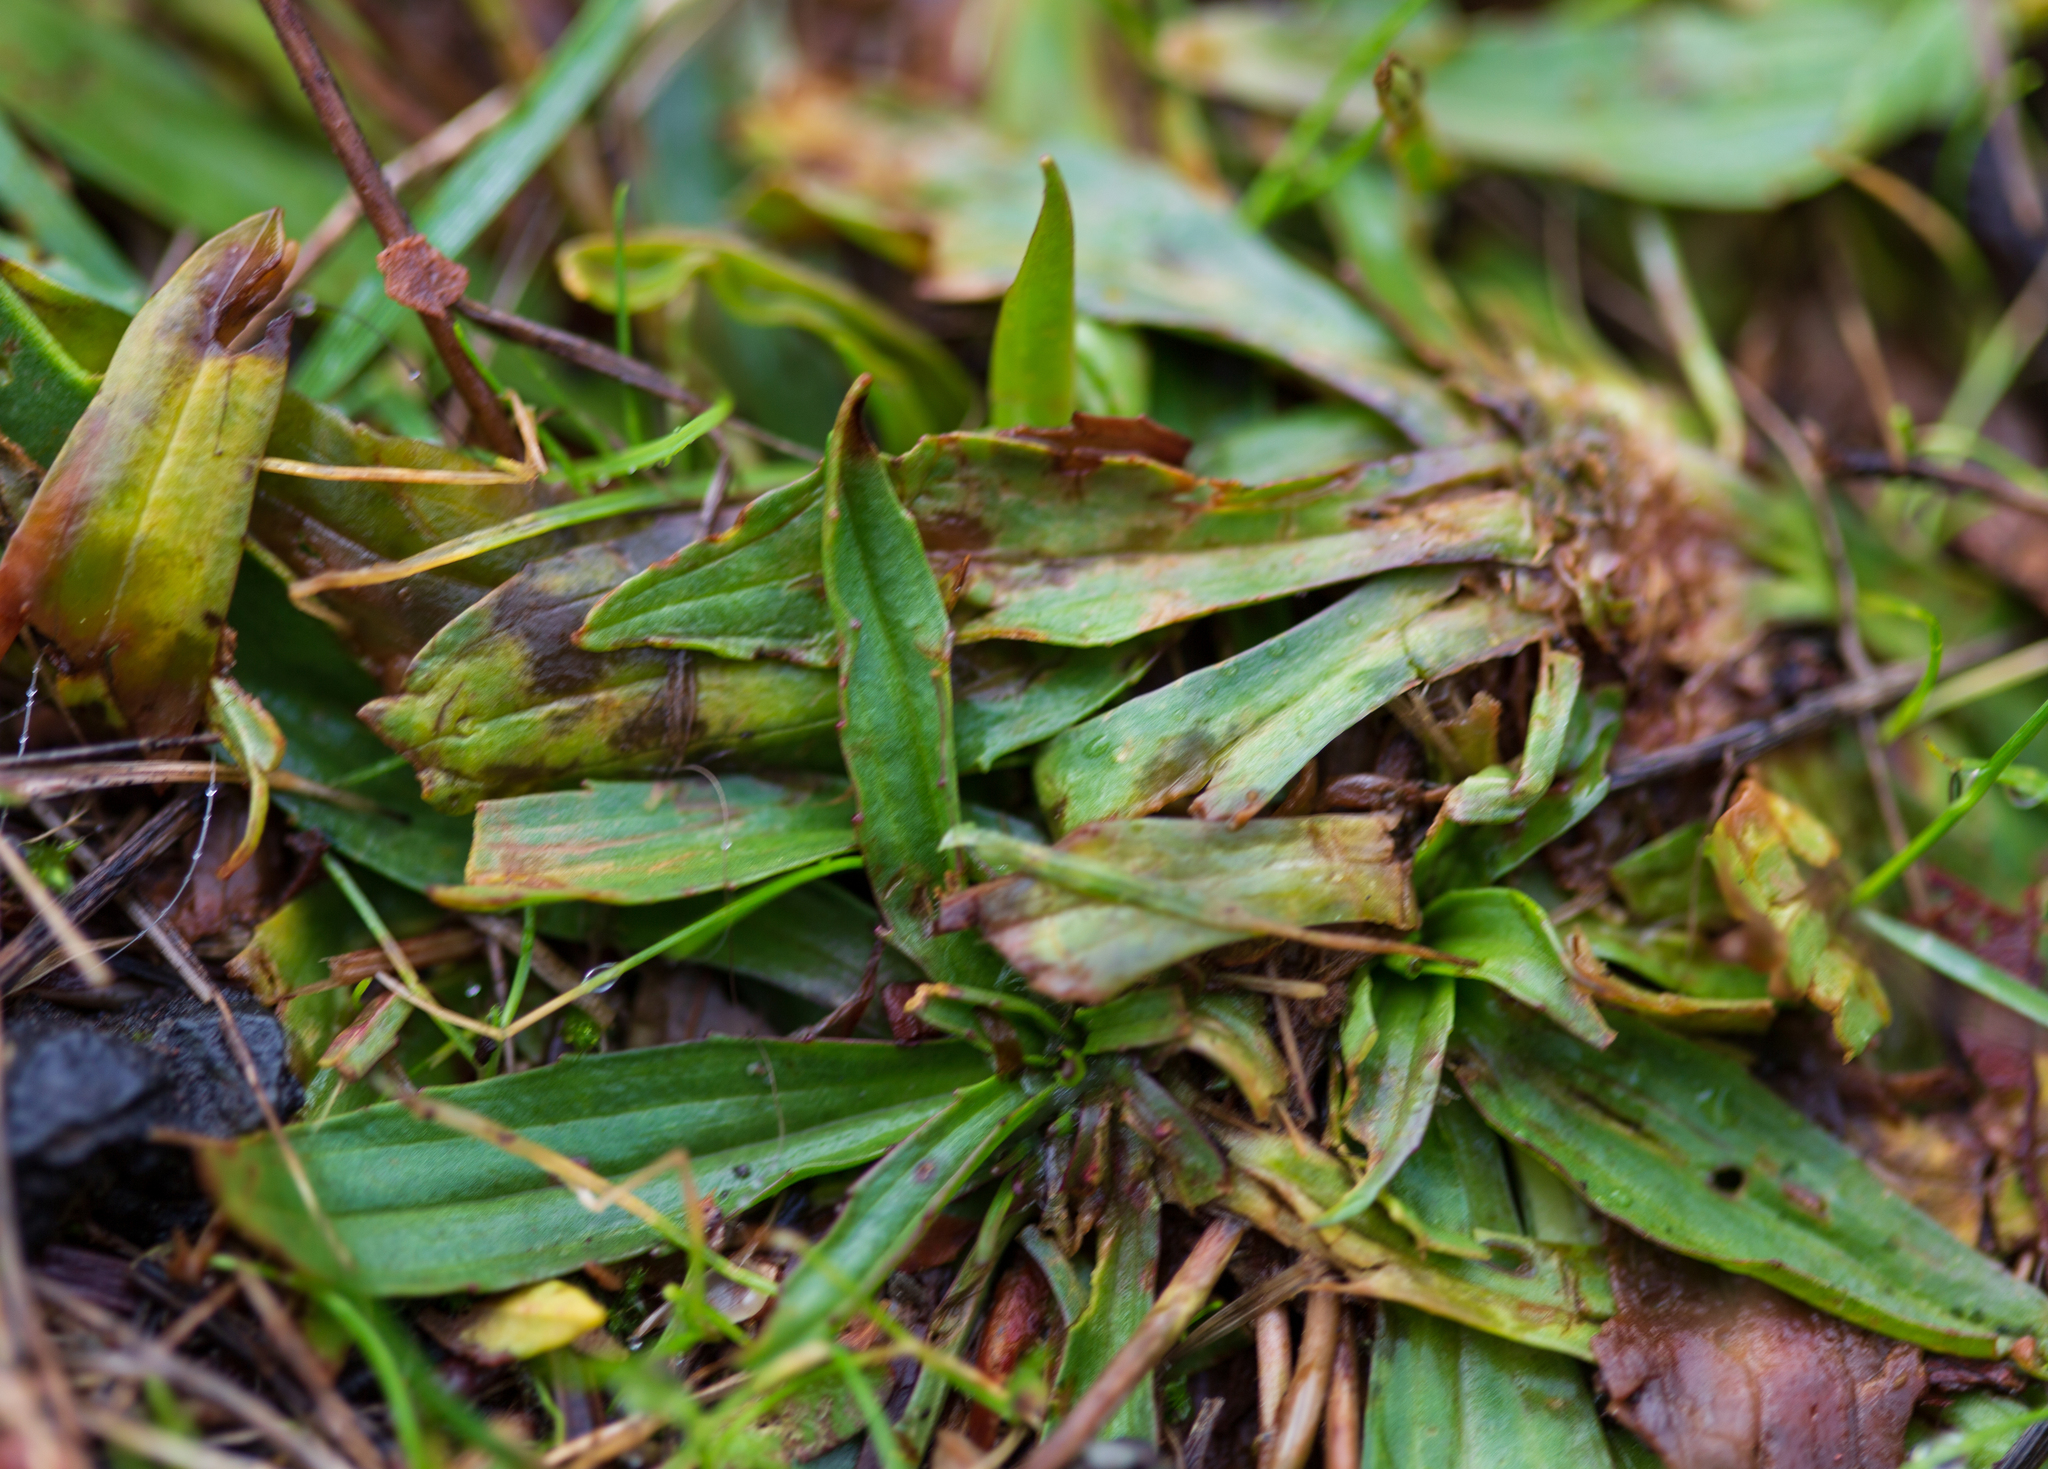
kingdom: Plantae
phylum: Tracheophyta
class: Magnoliopsida
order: Lamiales
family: Plantaginaceae
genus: Plantago
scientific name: Plantago lanceolata
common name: Ribwort plantain
